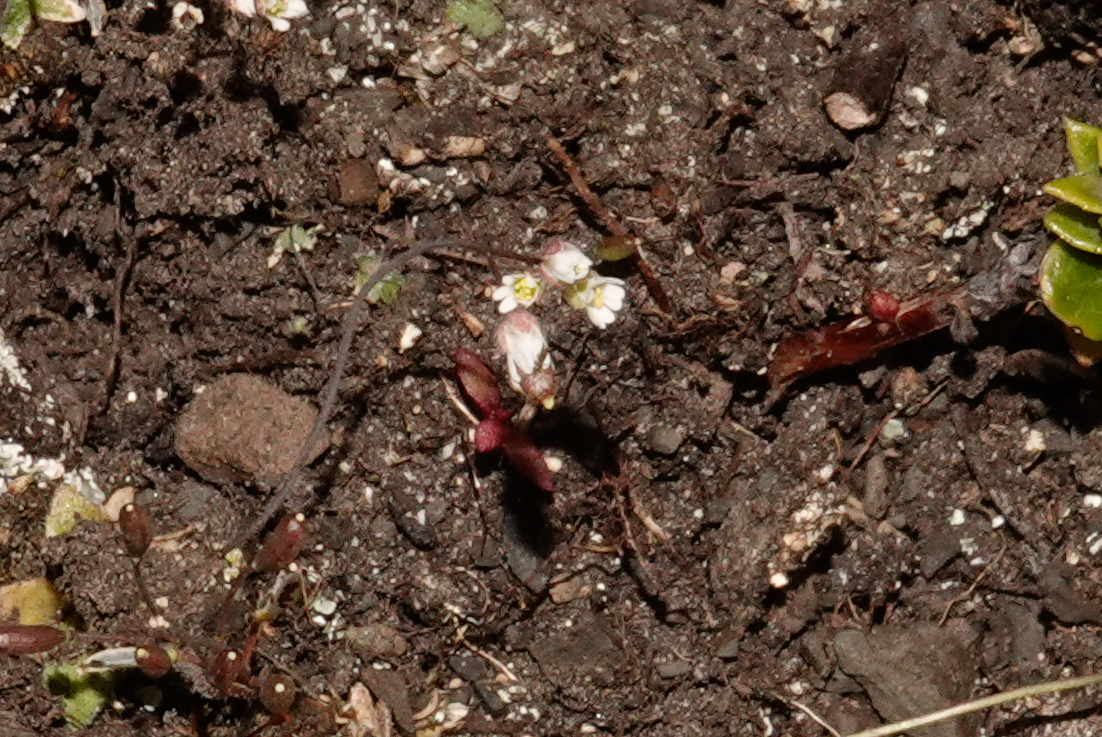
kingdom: Plantae
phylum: Tracheophyta
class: Magnoliopsida
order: Brassicales
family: Brassicaceae
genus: Draba
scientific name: Draba verna
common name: Spring draba
